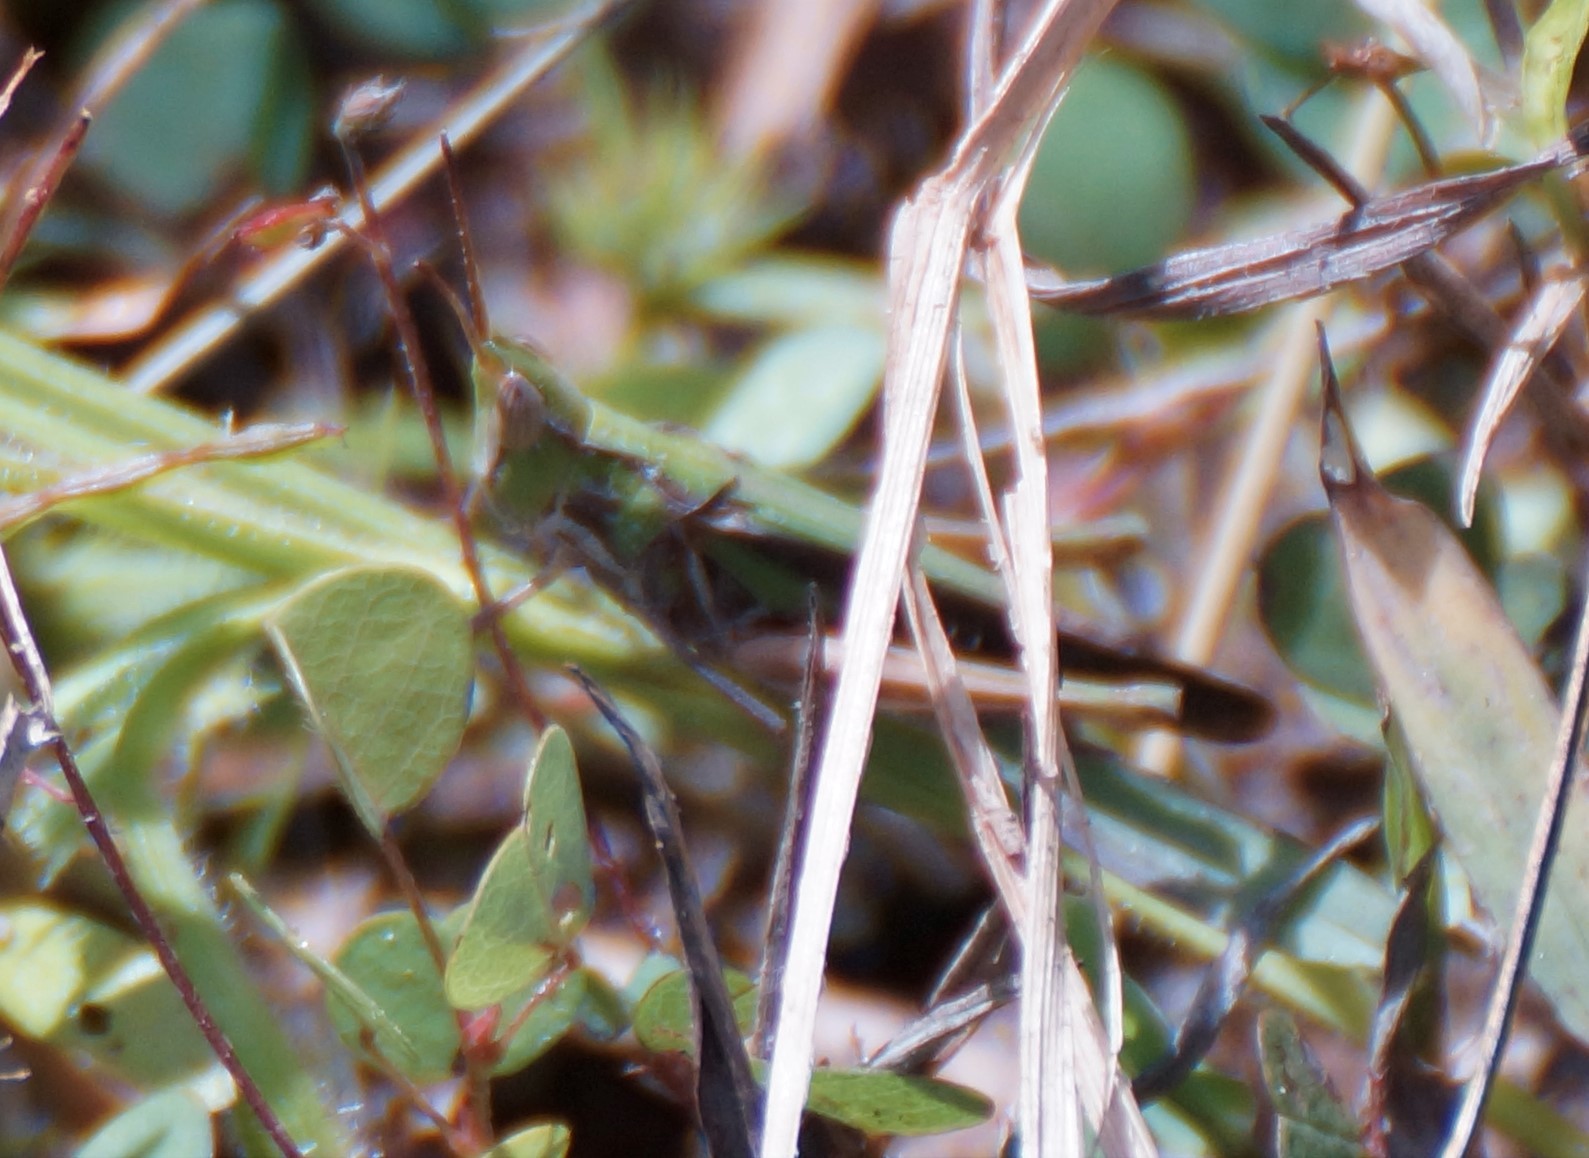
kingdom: Animalia
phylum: Arthropoda
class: Insecta
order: Orthoptera
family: Acrididae
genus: Froggattina
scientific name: Froggattina australis
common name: Froggatt's buzzer
